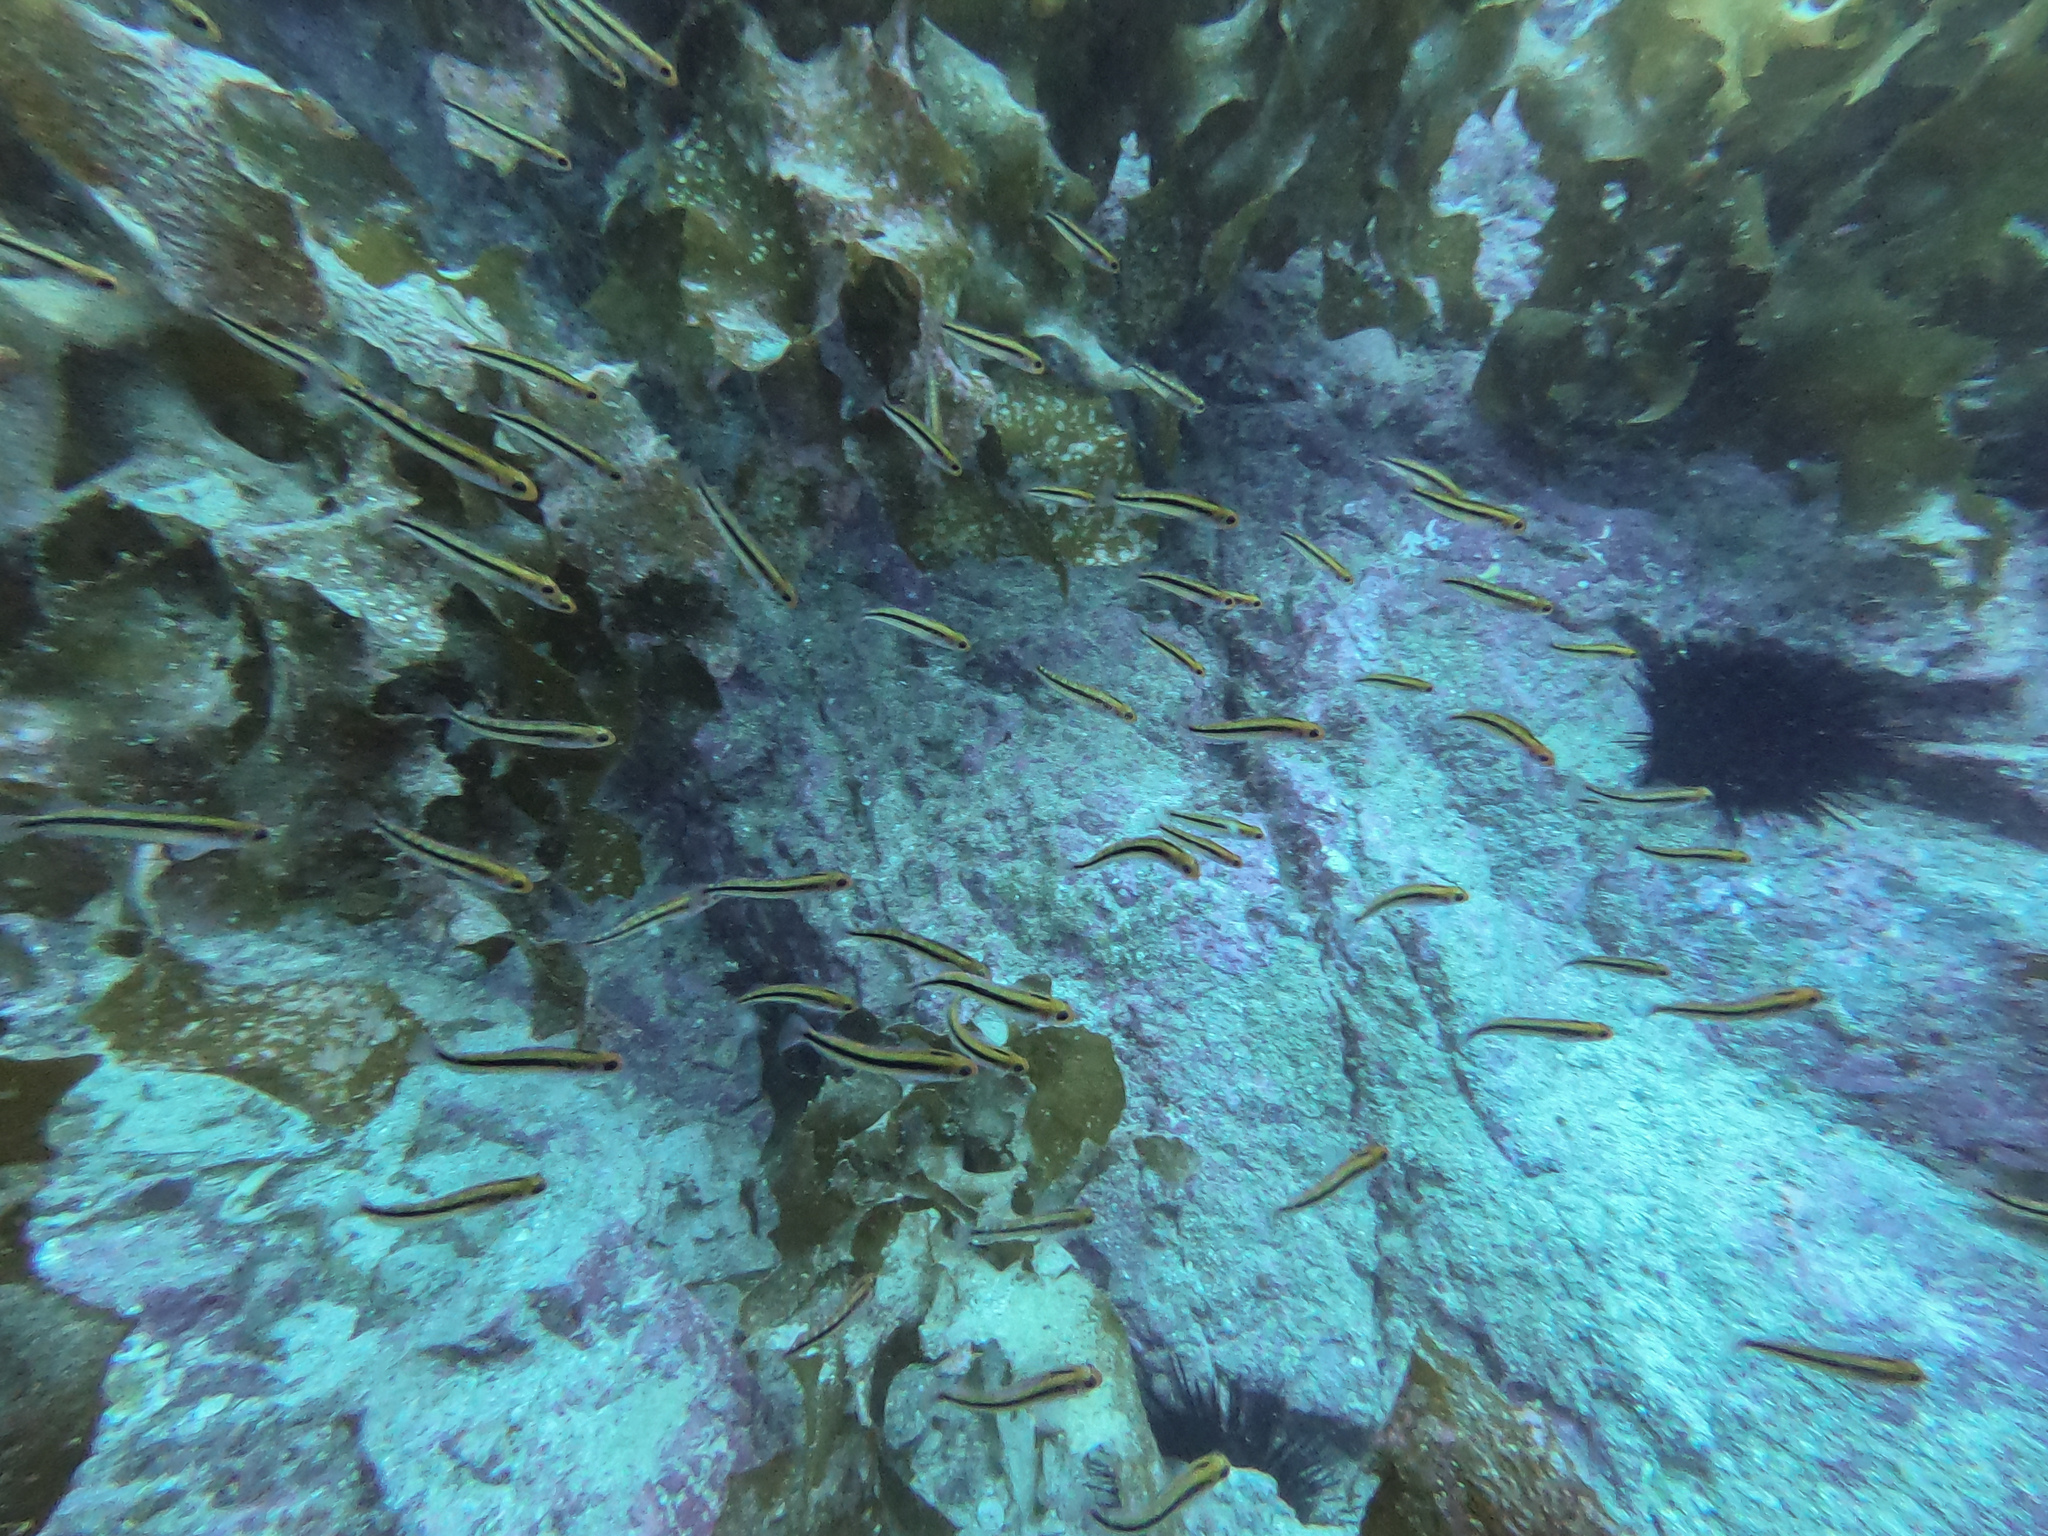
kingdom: Animalia
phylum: Chordata
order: Perciformes
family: Tripterygiidae
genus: Forsterygion
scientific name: Forsterygion maryannae
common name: Oblique-swimming triplefin
